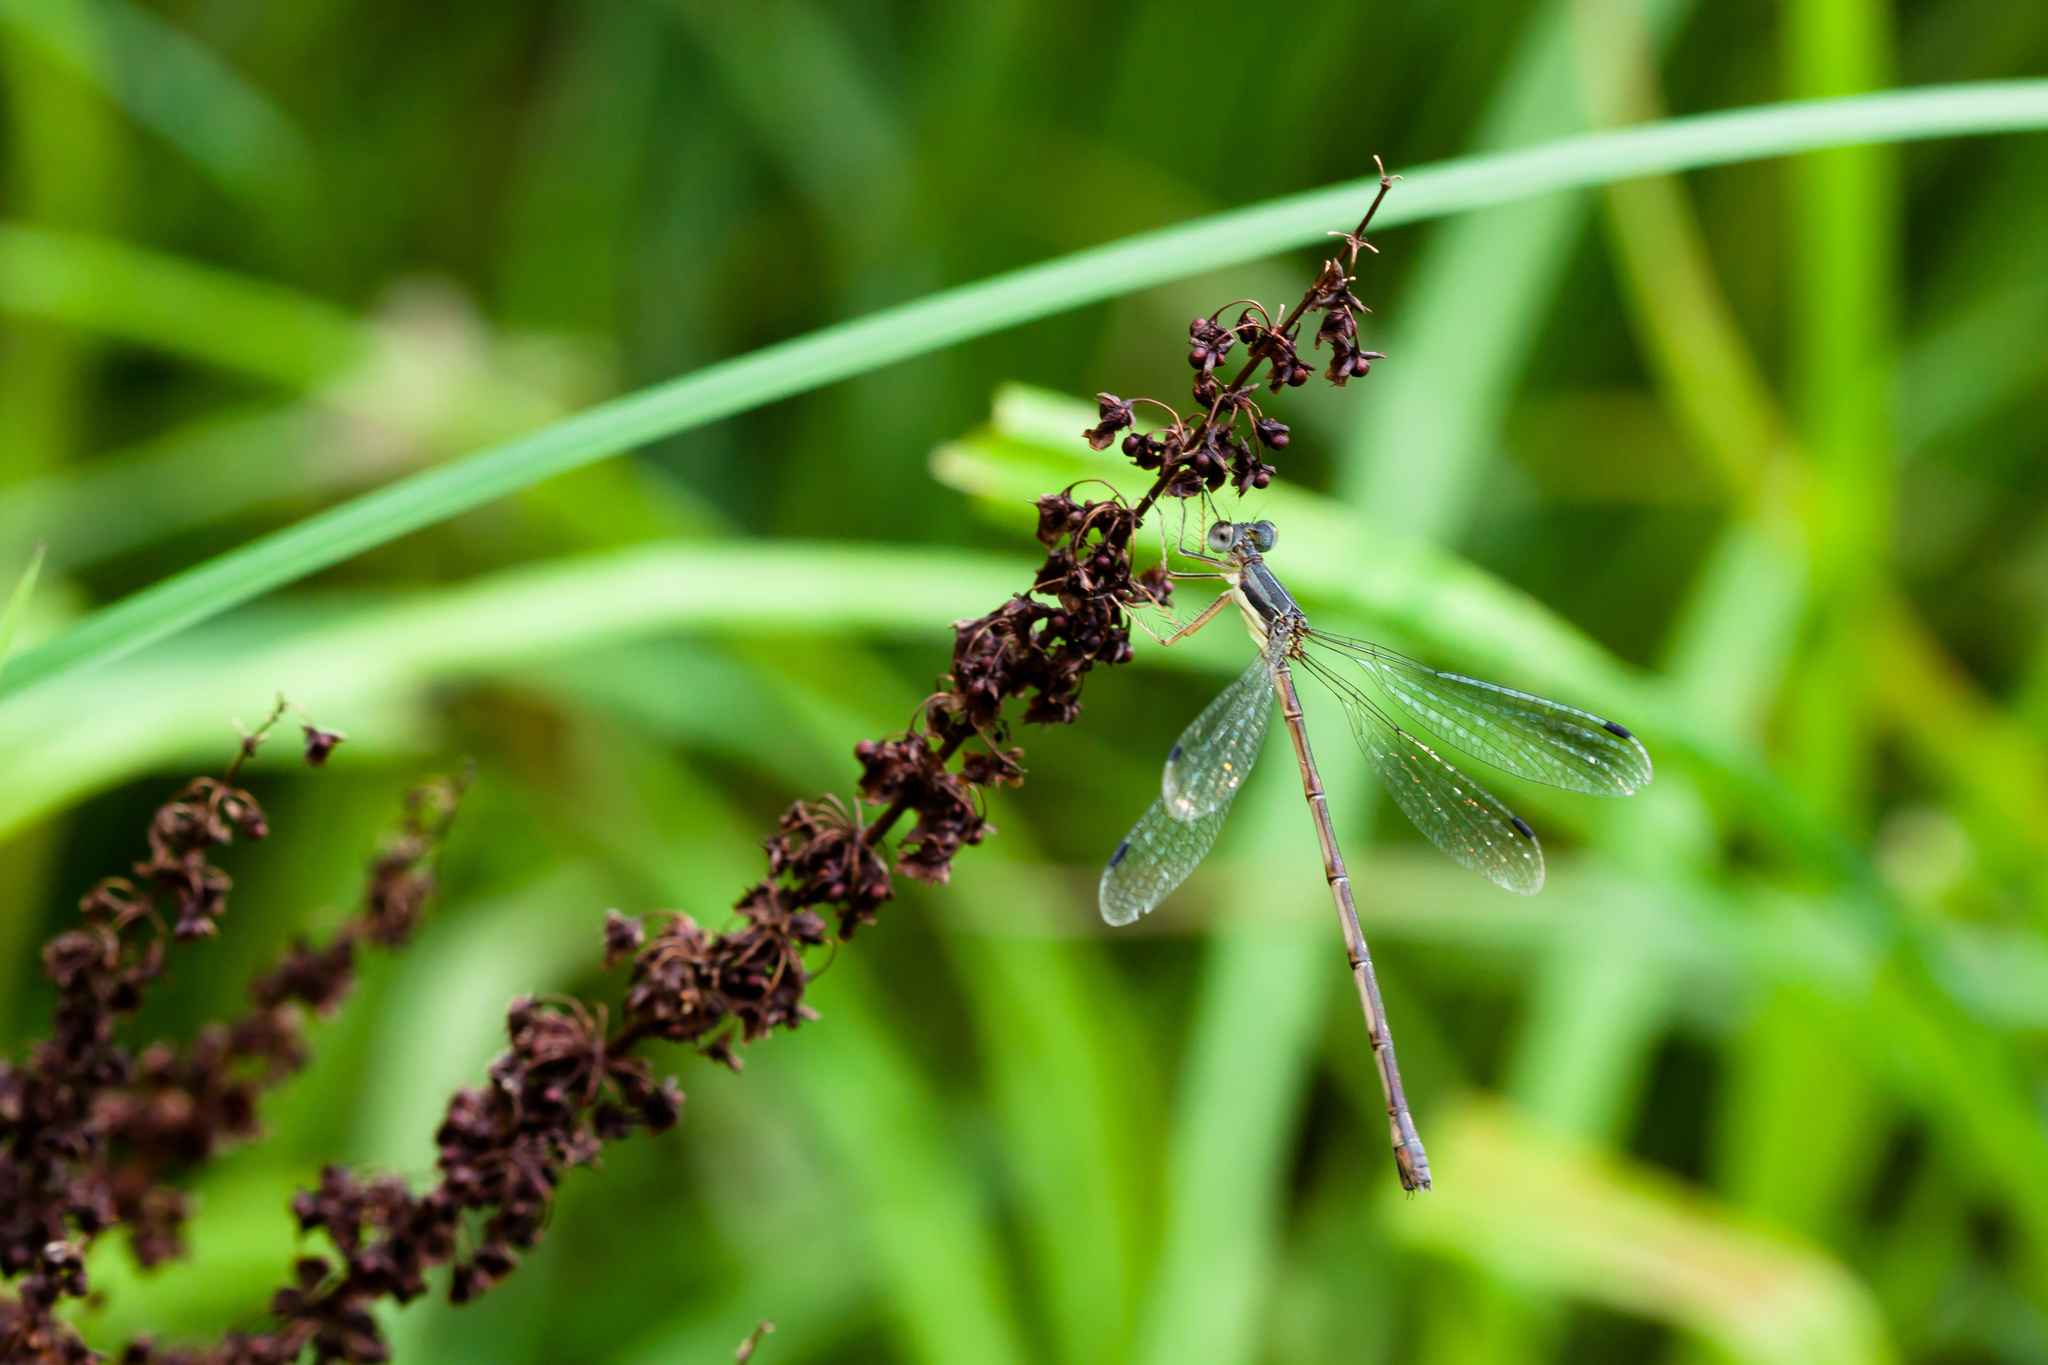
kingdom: Animalia
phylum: Arthropoda
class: Insecta
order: Odonata
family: Lestidae
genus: Lestes
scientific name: Lestes rectangularis
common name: Slender spreadwing
